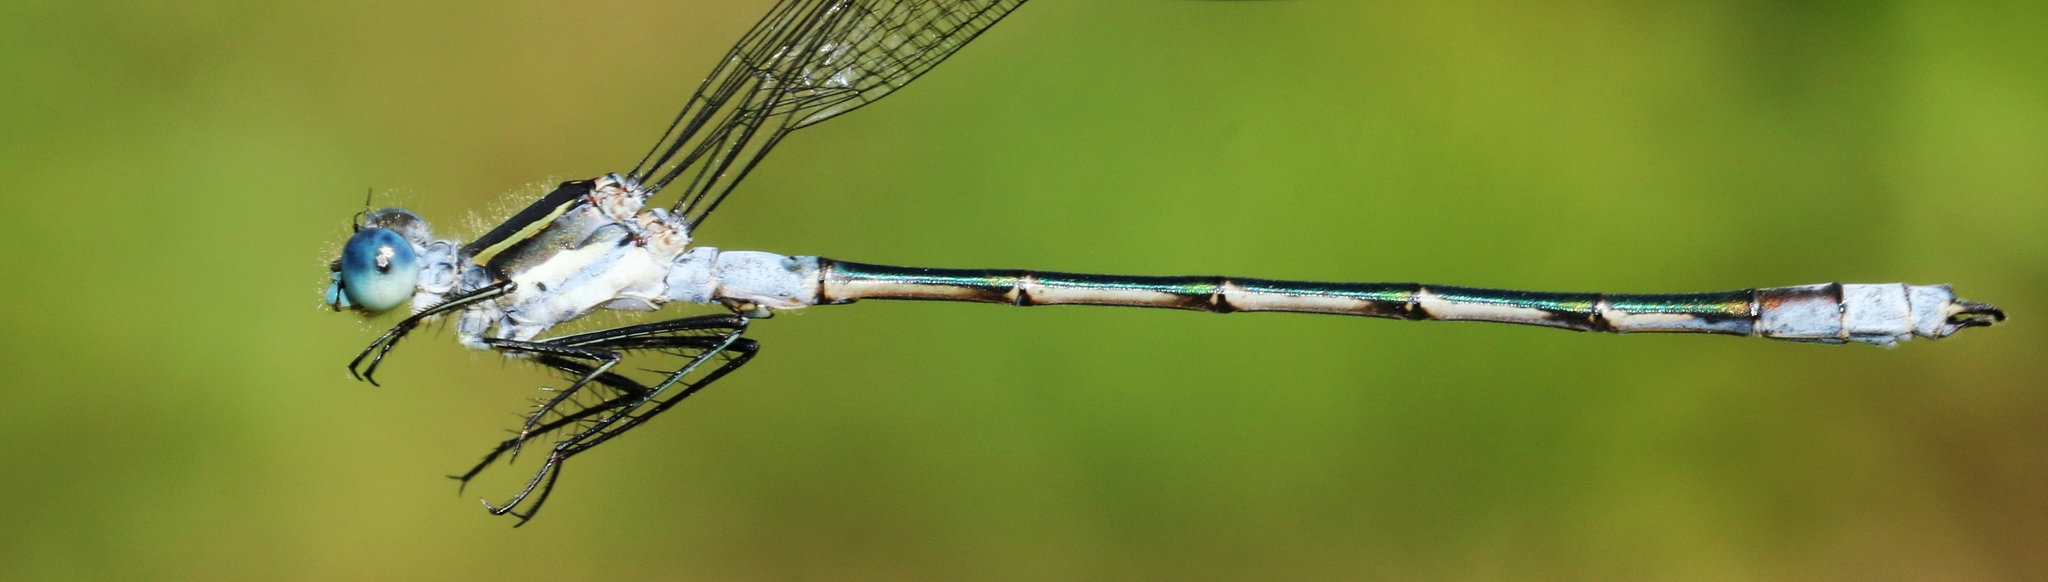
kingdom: Animalia
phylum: Arthropoda
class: Insecta
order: Odonata
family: Lestidae
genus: Lestes
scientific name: Lestes disjunctus
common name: Northern spreadwing
